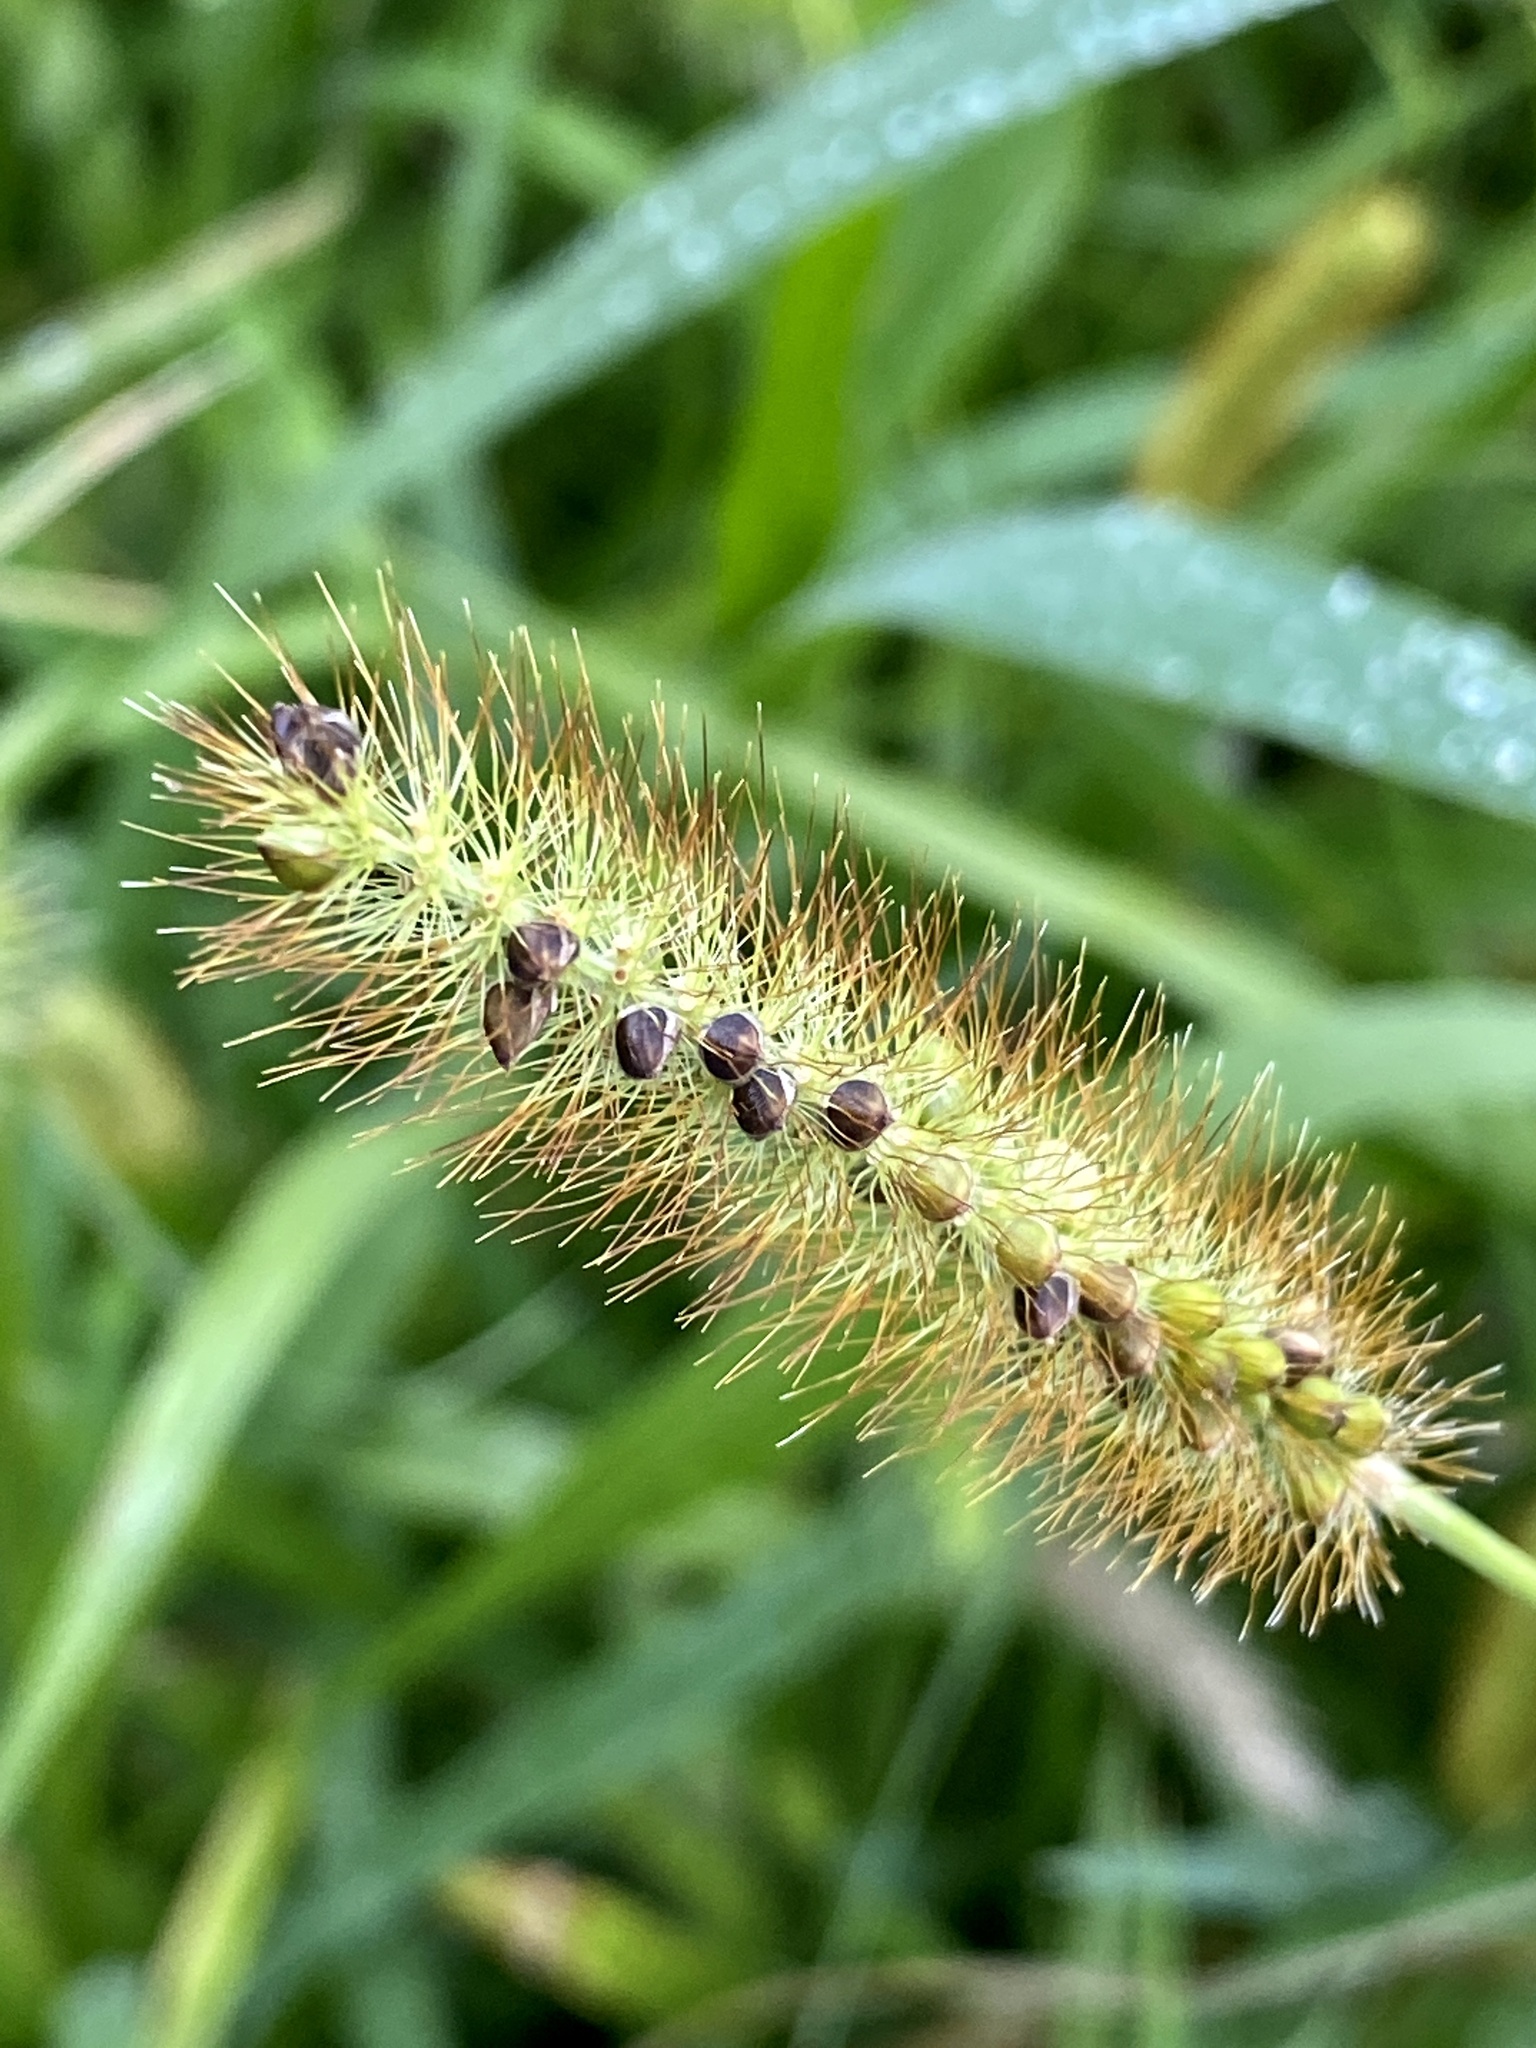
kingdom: Plantae
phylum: Tracheophyta
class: Liliopsida
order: Poales
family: Poaceae
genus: Setaria
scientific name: Setaria pumila
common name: Yellow bristle-grass
